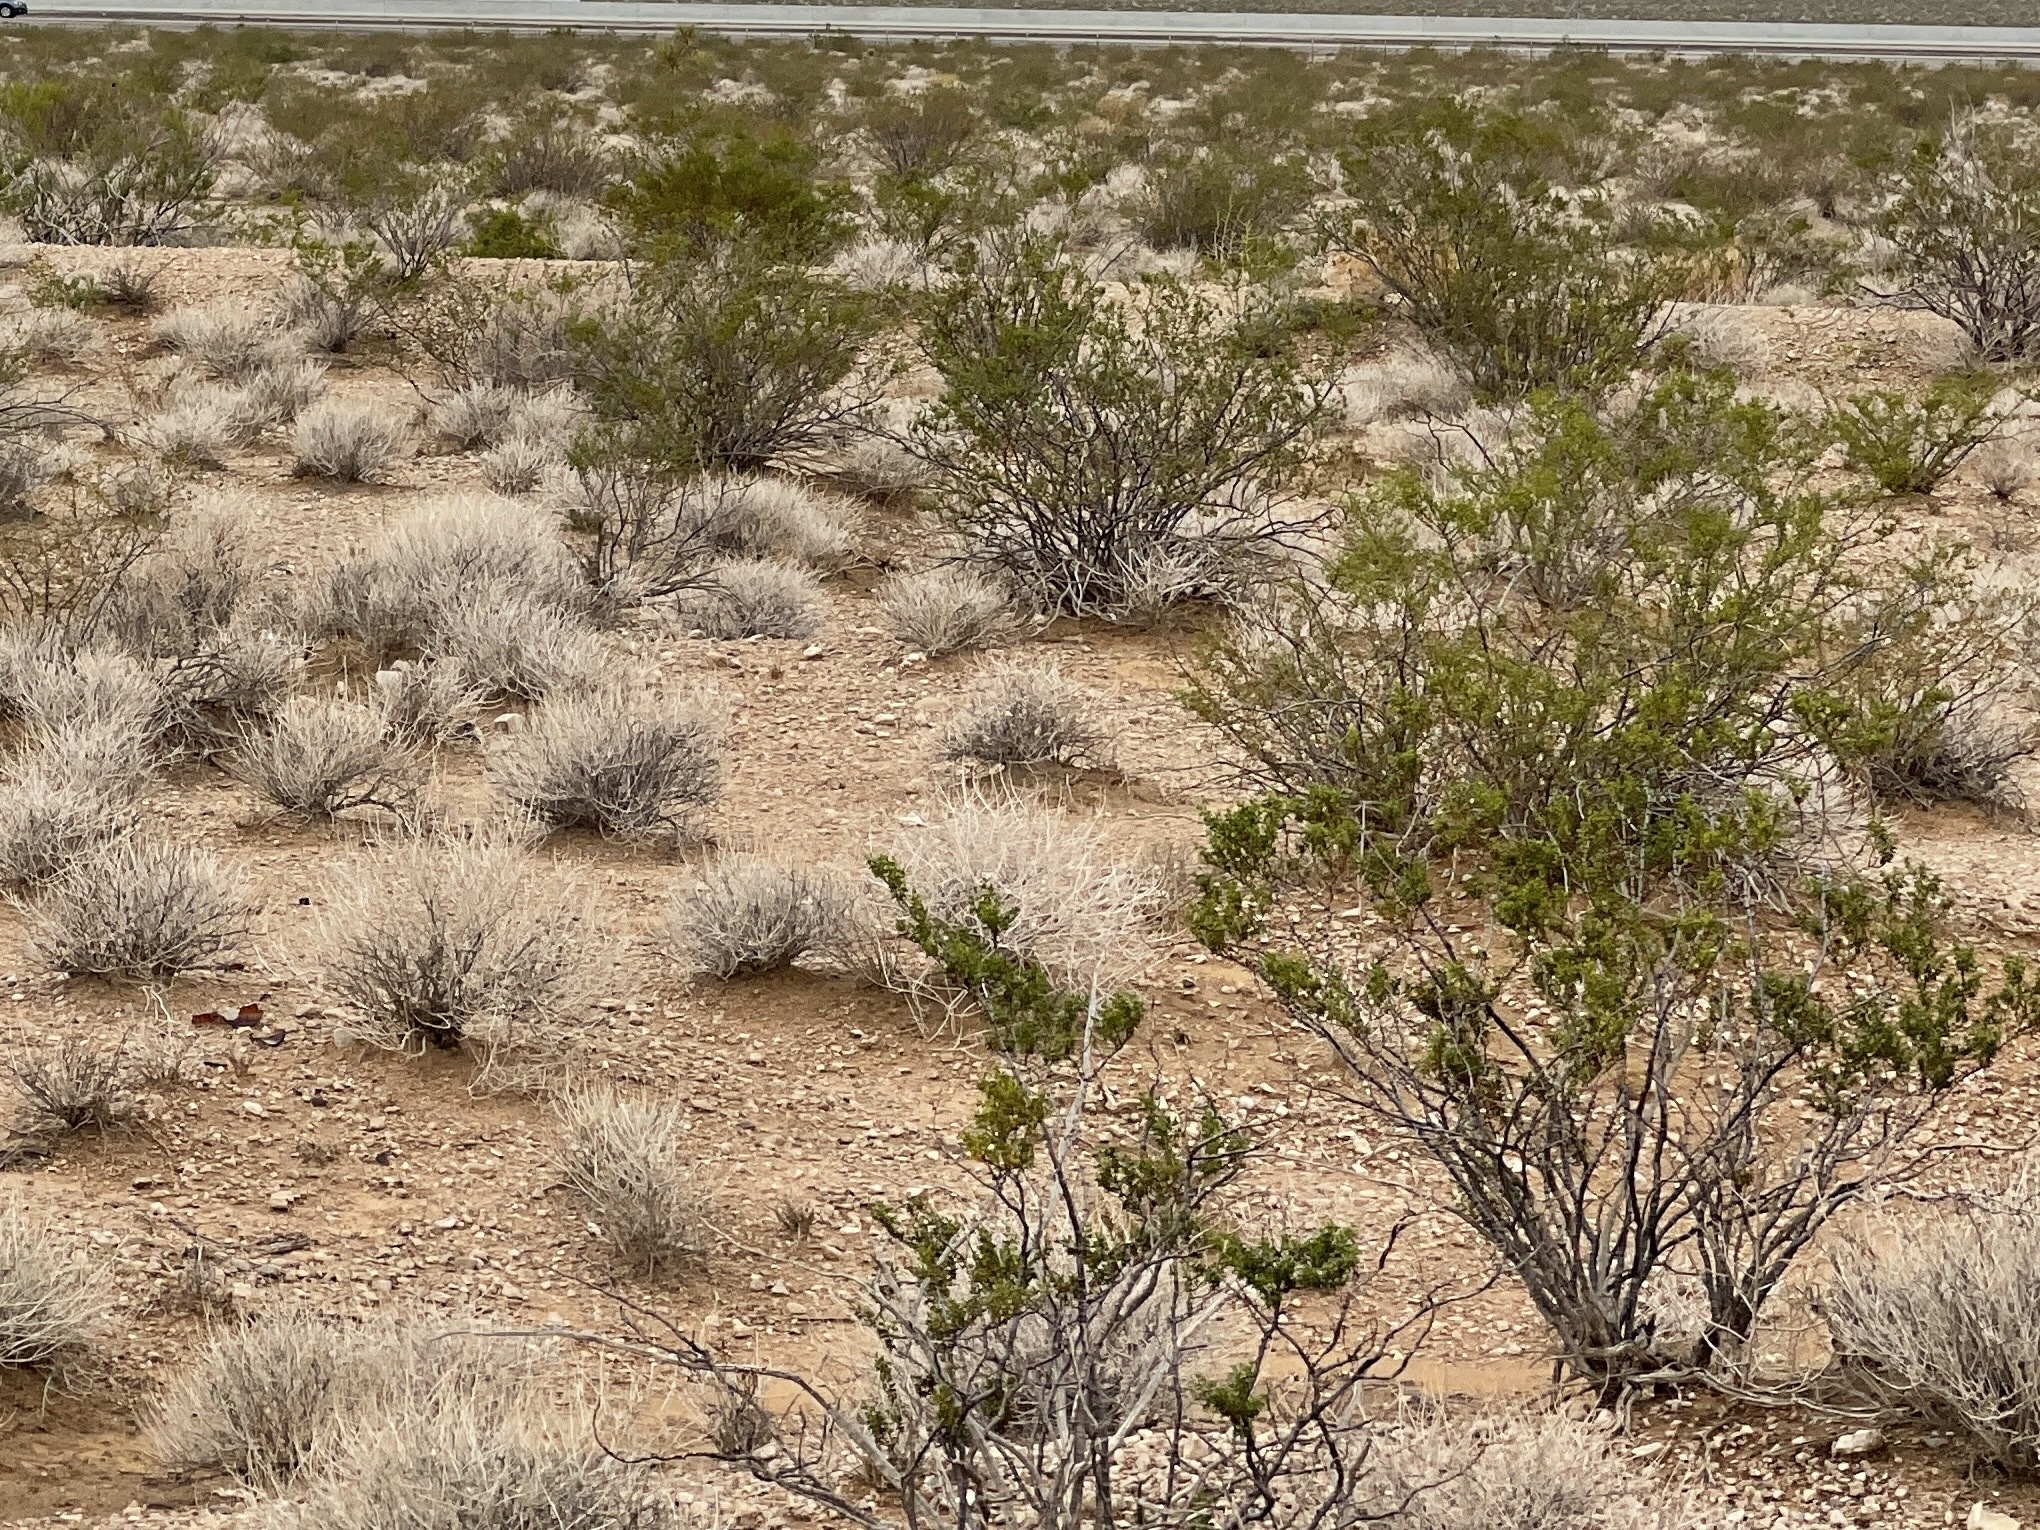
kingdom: Plantae
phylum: Tracheophyta
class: Magnoliopsida
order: Zygophyllales
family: Zygophyllaceae
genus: Larrea
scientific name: Larrea tridentata
